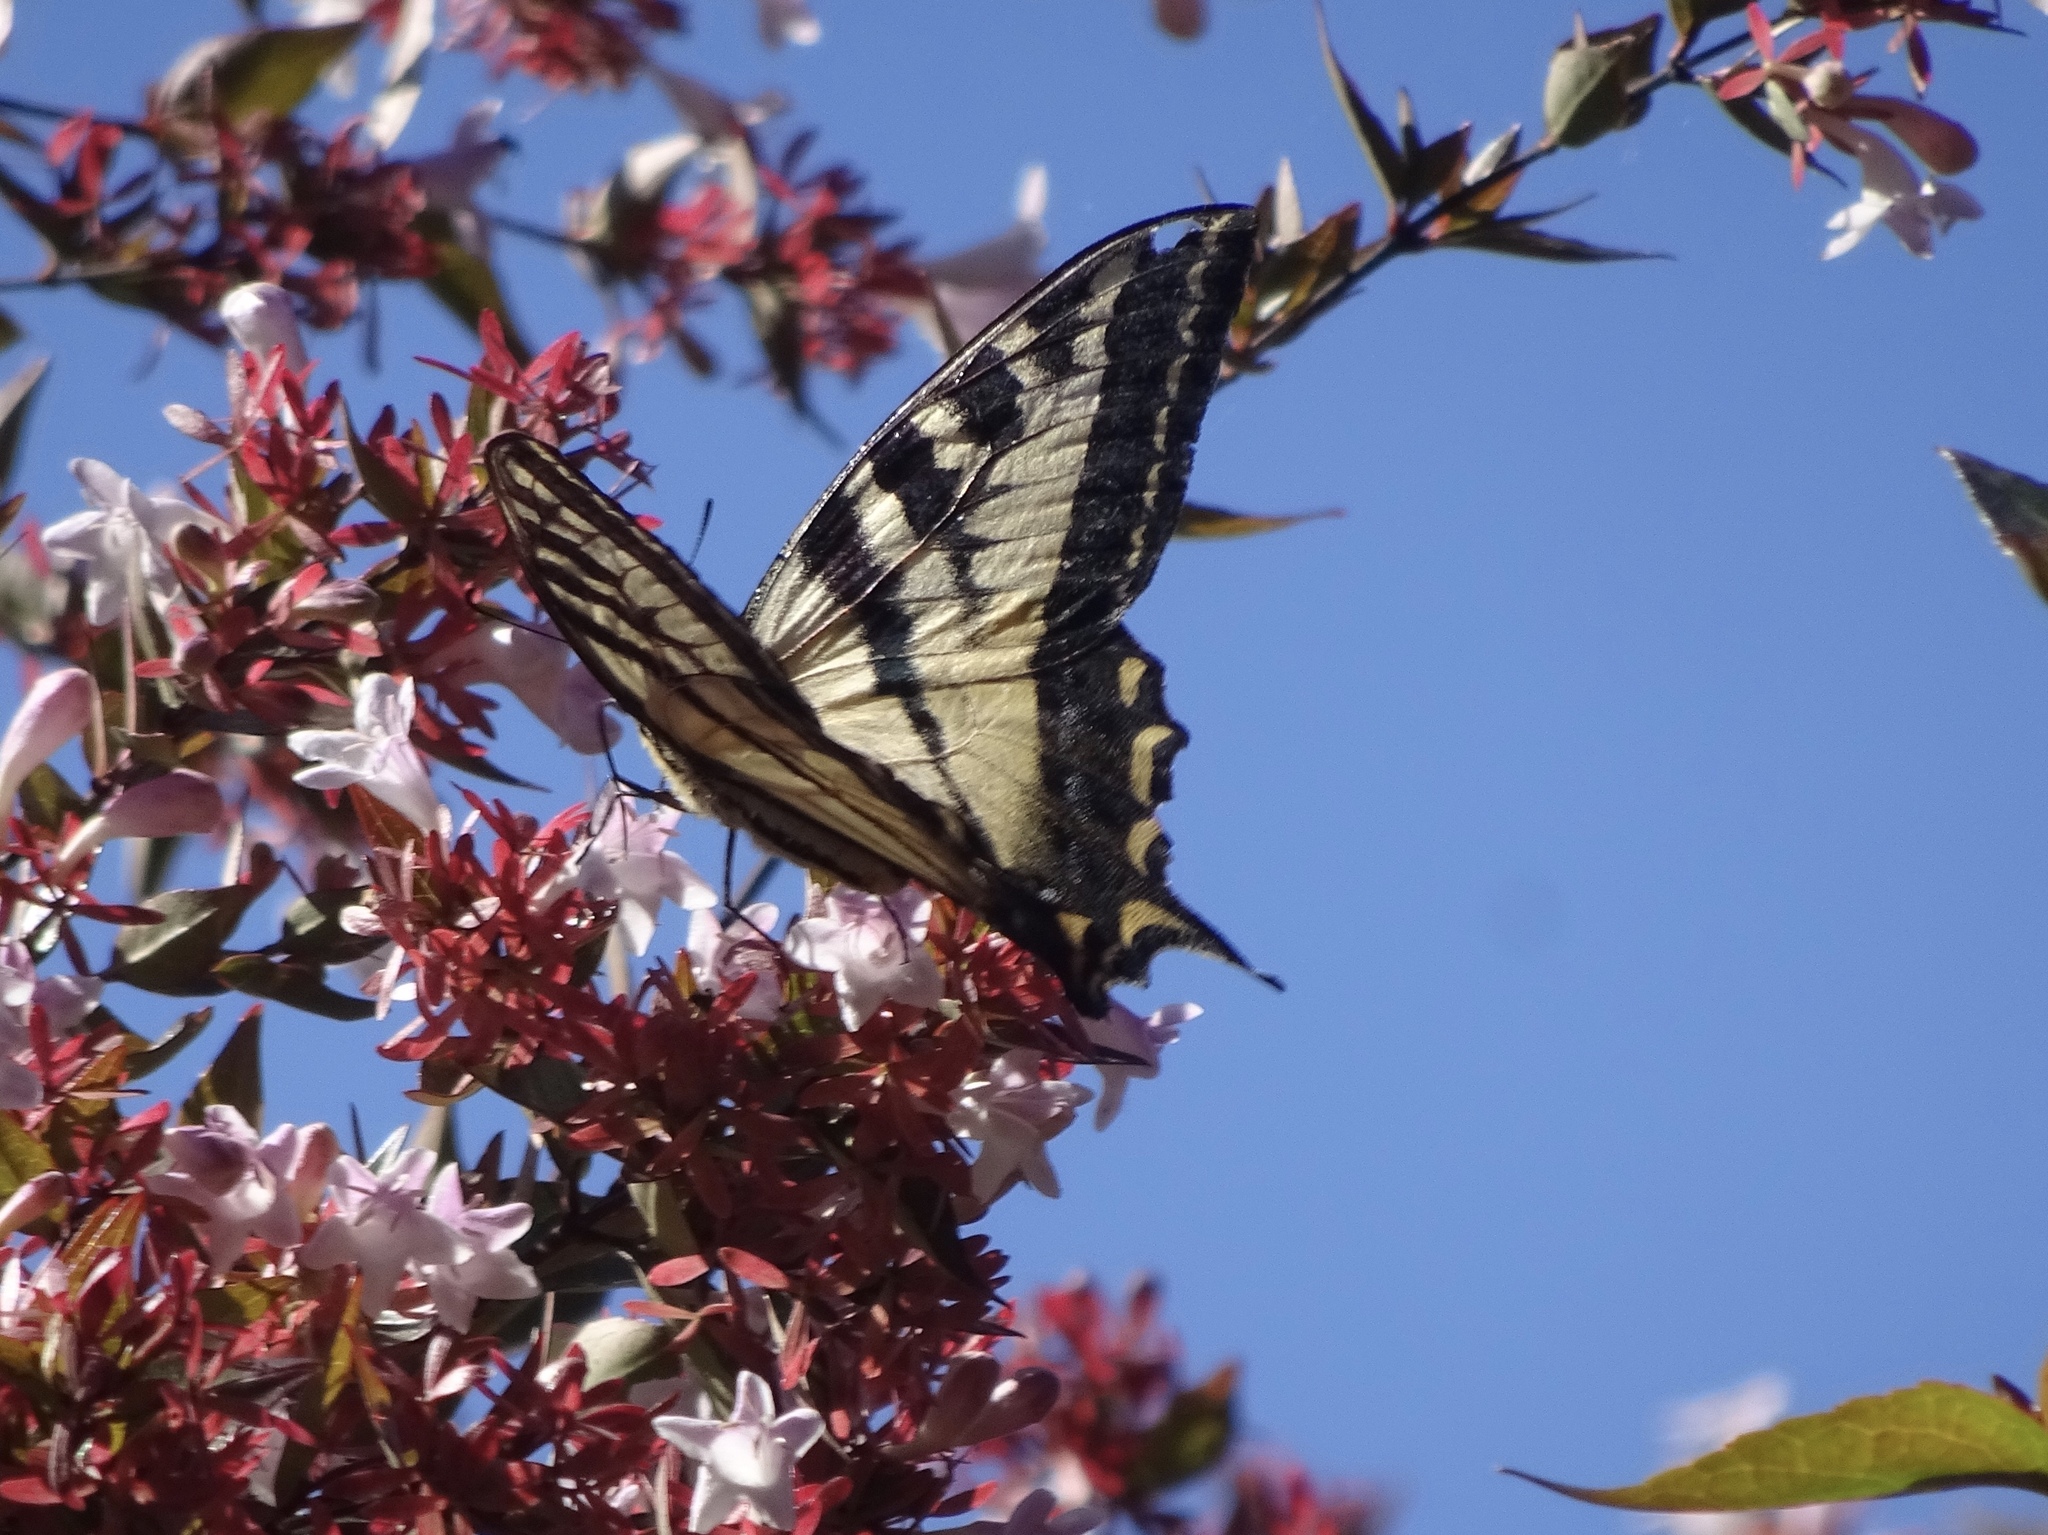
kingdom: Animalia
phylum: Arthropoda
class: Insecta
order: Lepidoptera
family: Papilionidae
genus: Papilio
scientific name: Papilio rutulus
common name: Western tiger swallowtail
